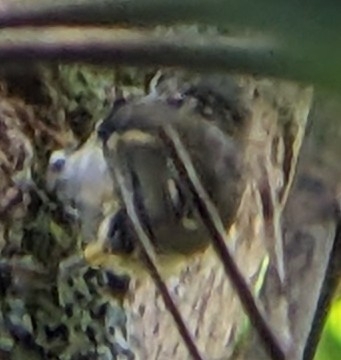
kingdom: Animalia
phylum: Chordata
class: Aves
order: Passeriformes
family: Acanthisittidae
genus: Acanthisitta
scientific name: Acanthisitta chloris
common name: Rifleman
